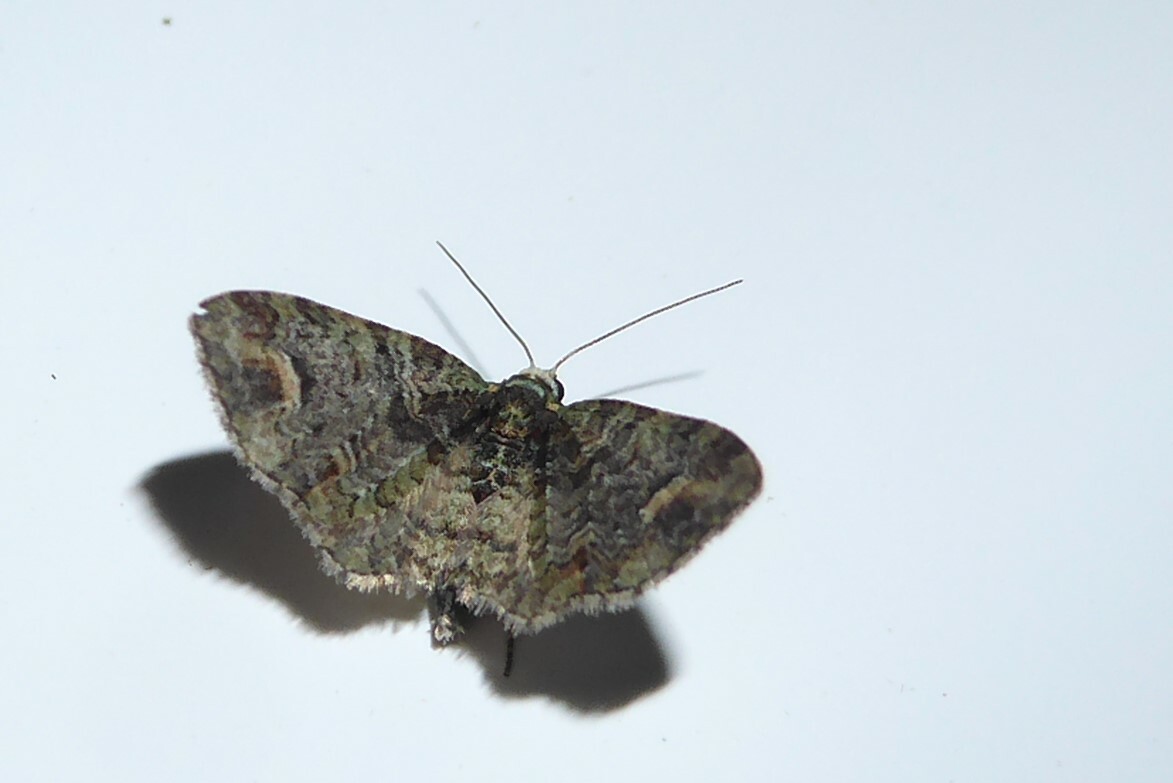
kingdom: Animalia
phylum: Arthropoda
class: Insecta
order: Lepidoptera
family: Geometridae
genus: Idaea
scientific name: Idaea mutanda
